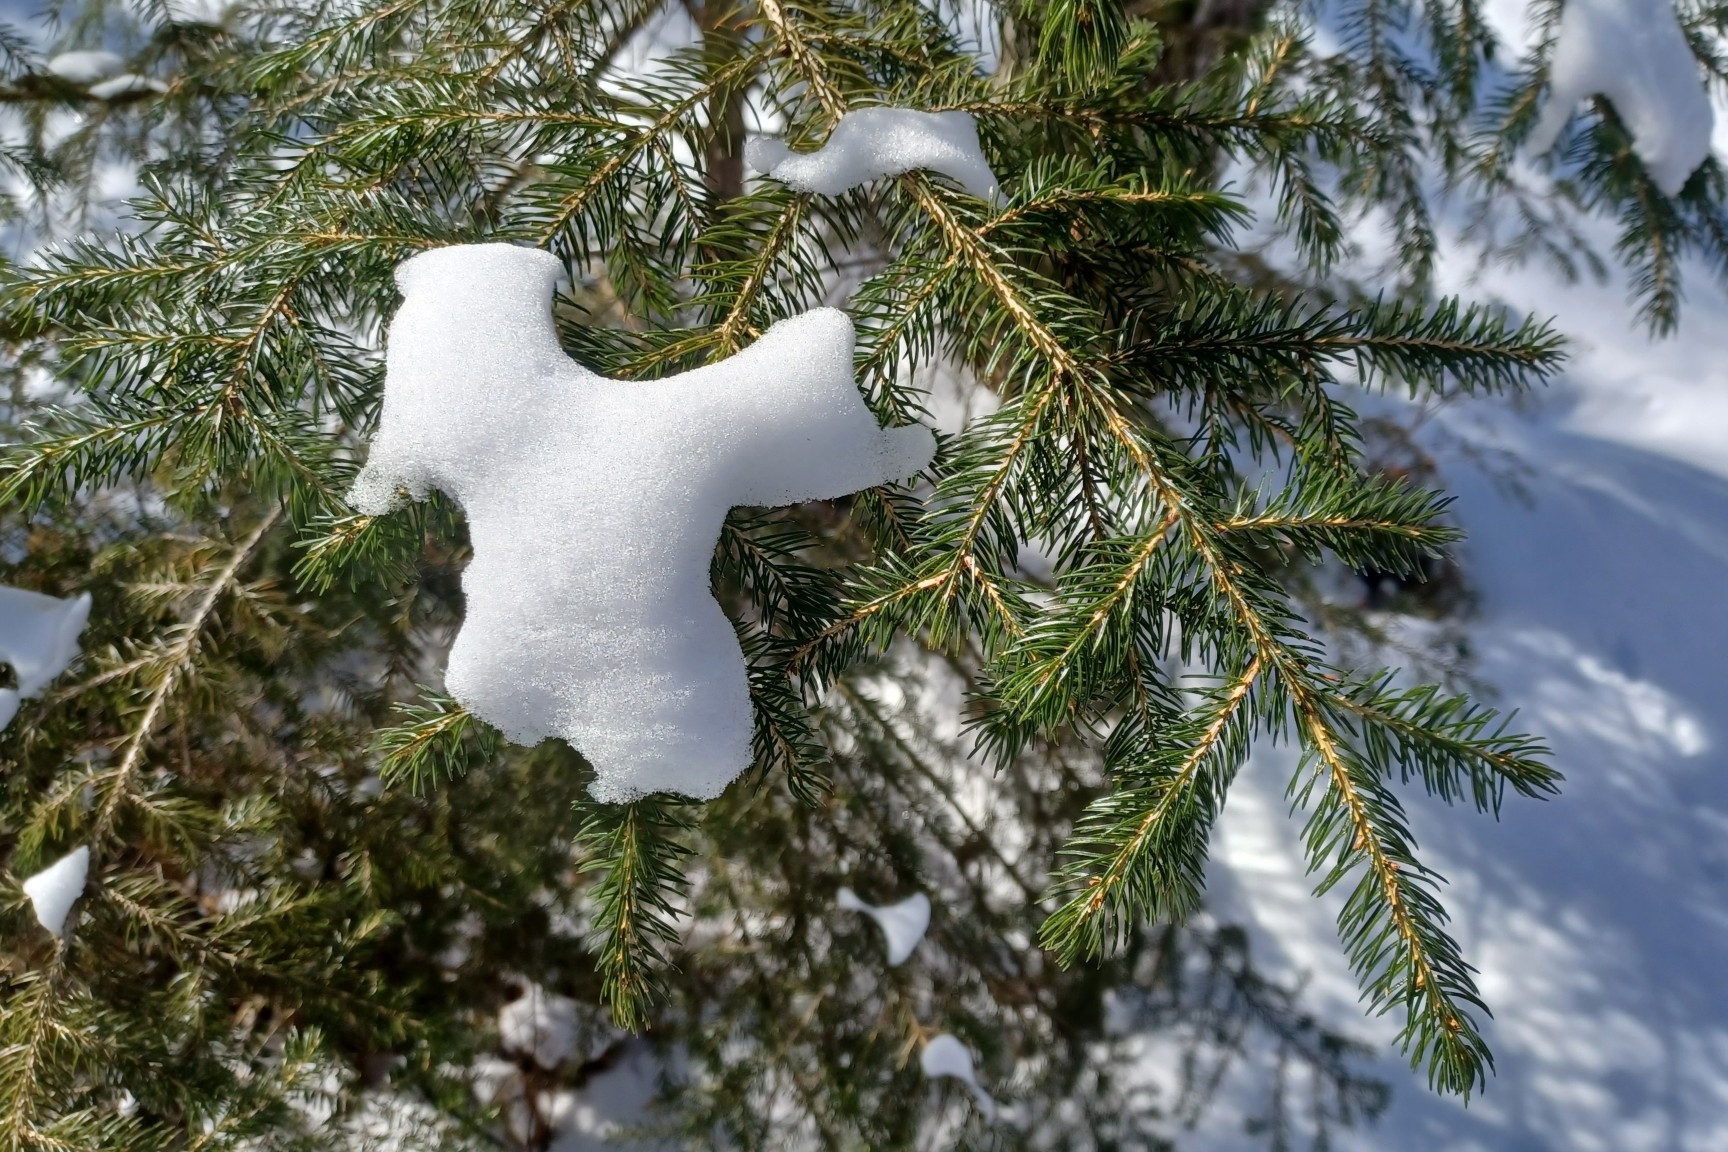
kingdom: Plantae
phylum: Tracheophyta
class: Pinopsida
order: Pinales
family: Pinaceae
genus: Picea
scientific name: Picea rubens
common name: Red spruce
